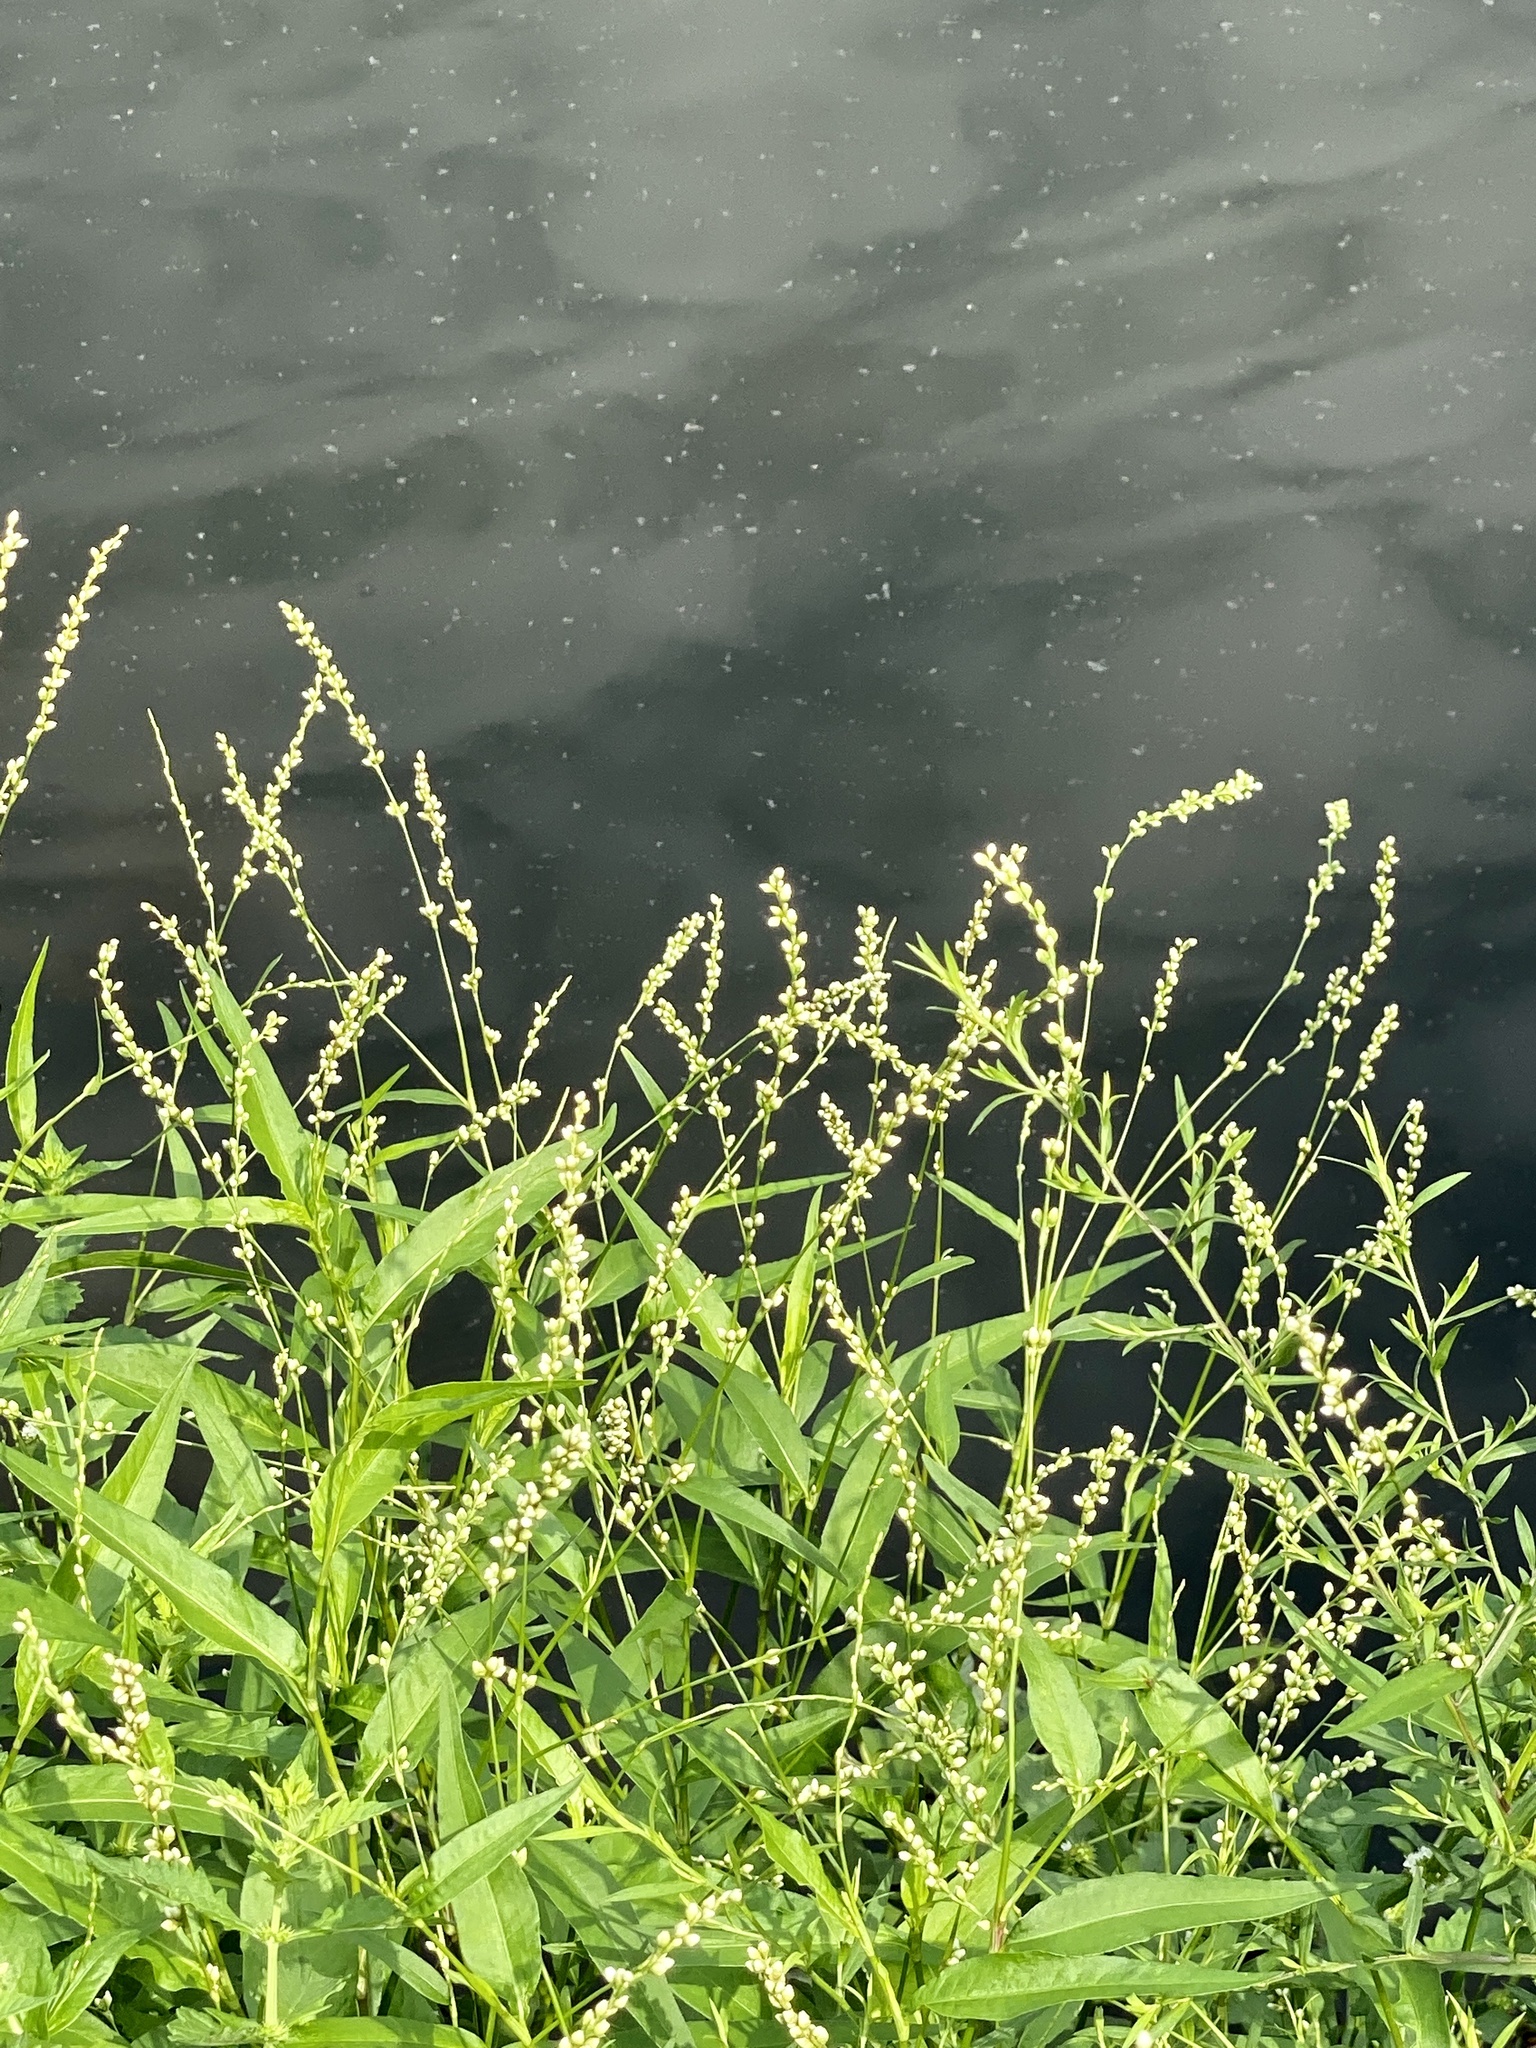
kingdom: Plantae
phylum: Tracheophyta
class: Magnoliopsida
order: Caryophyllales
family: Polygonaceae
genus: Persicaria
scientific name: Persicaria punctata
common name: Dotted smartweed
